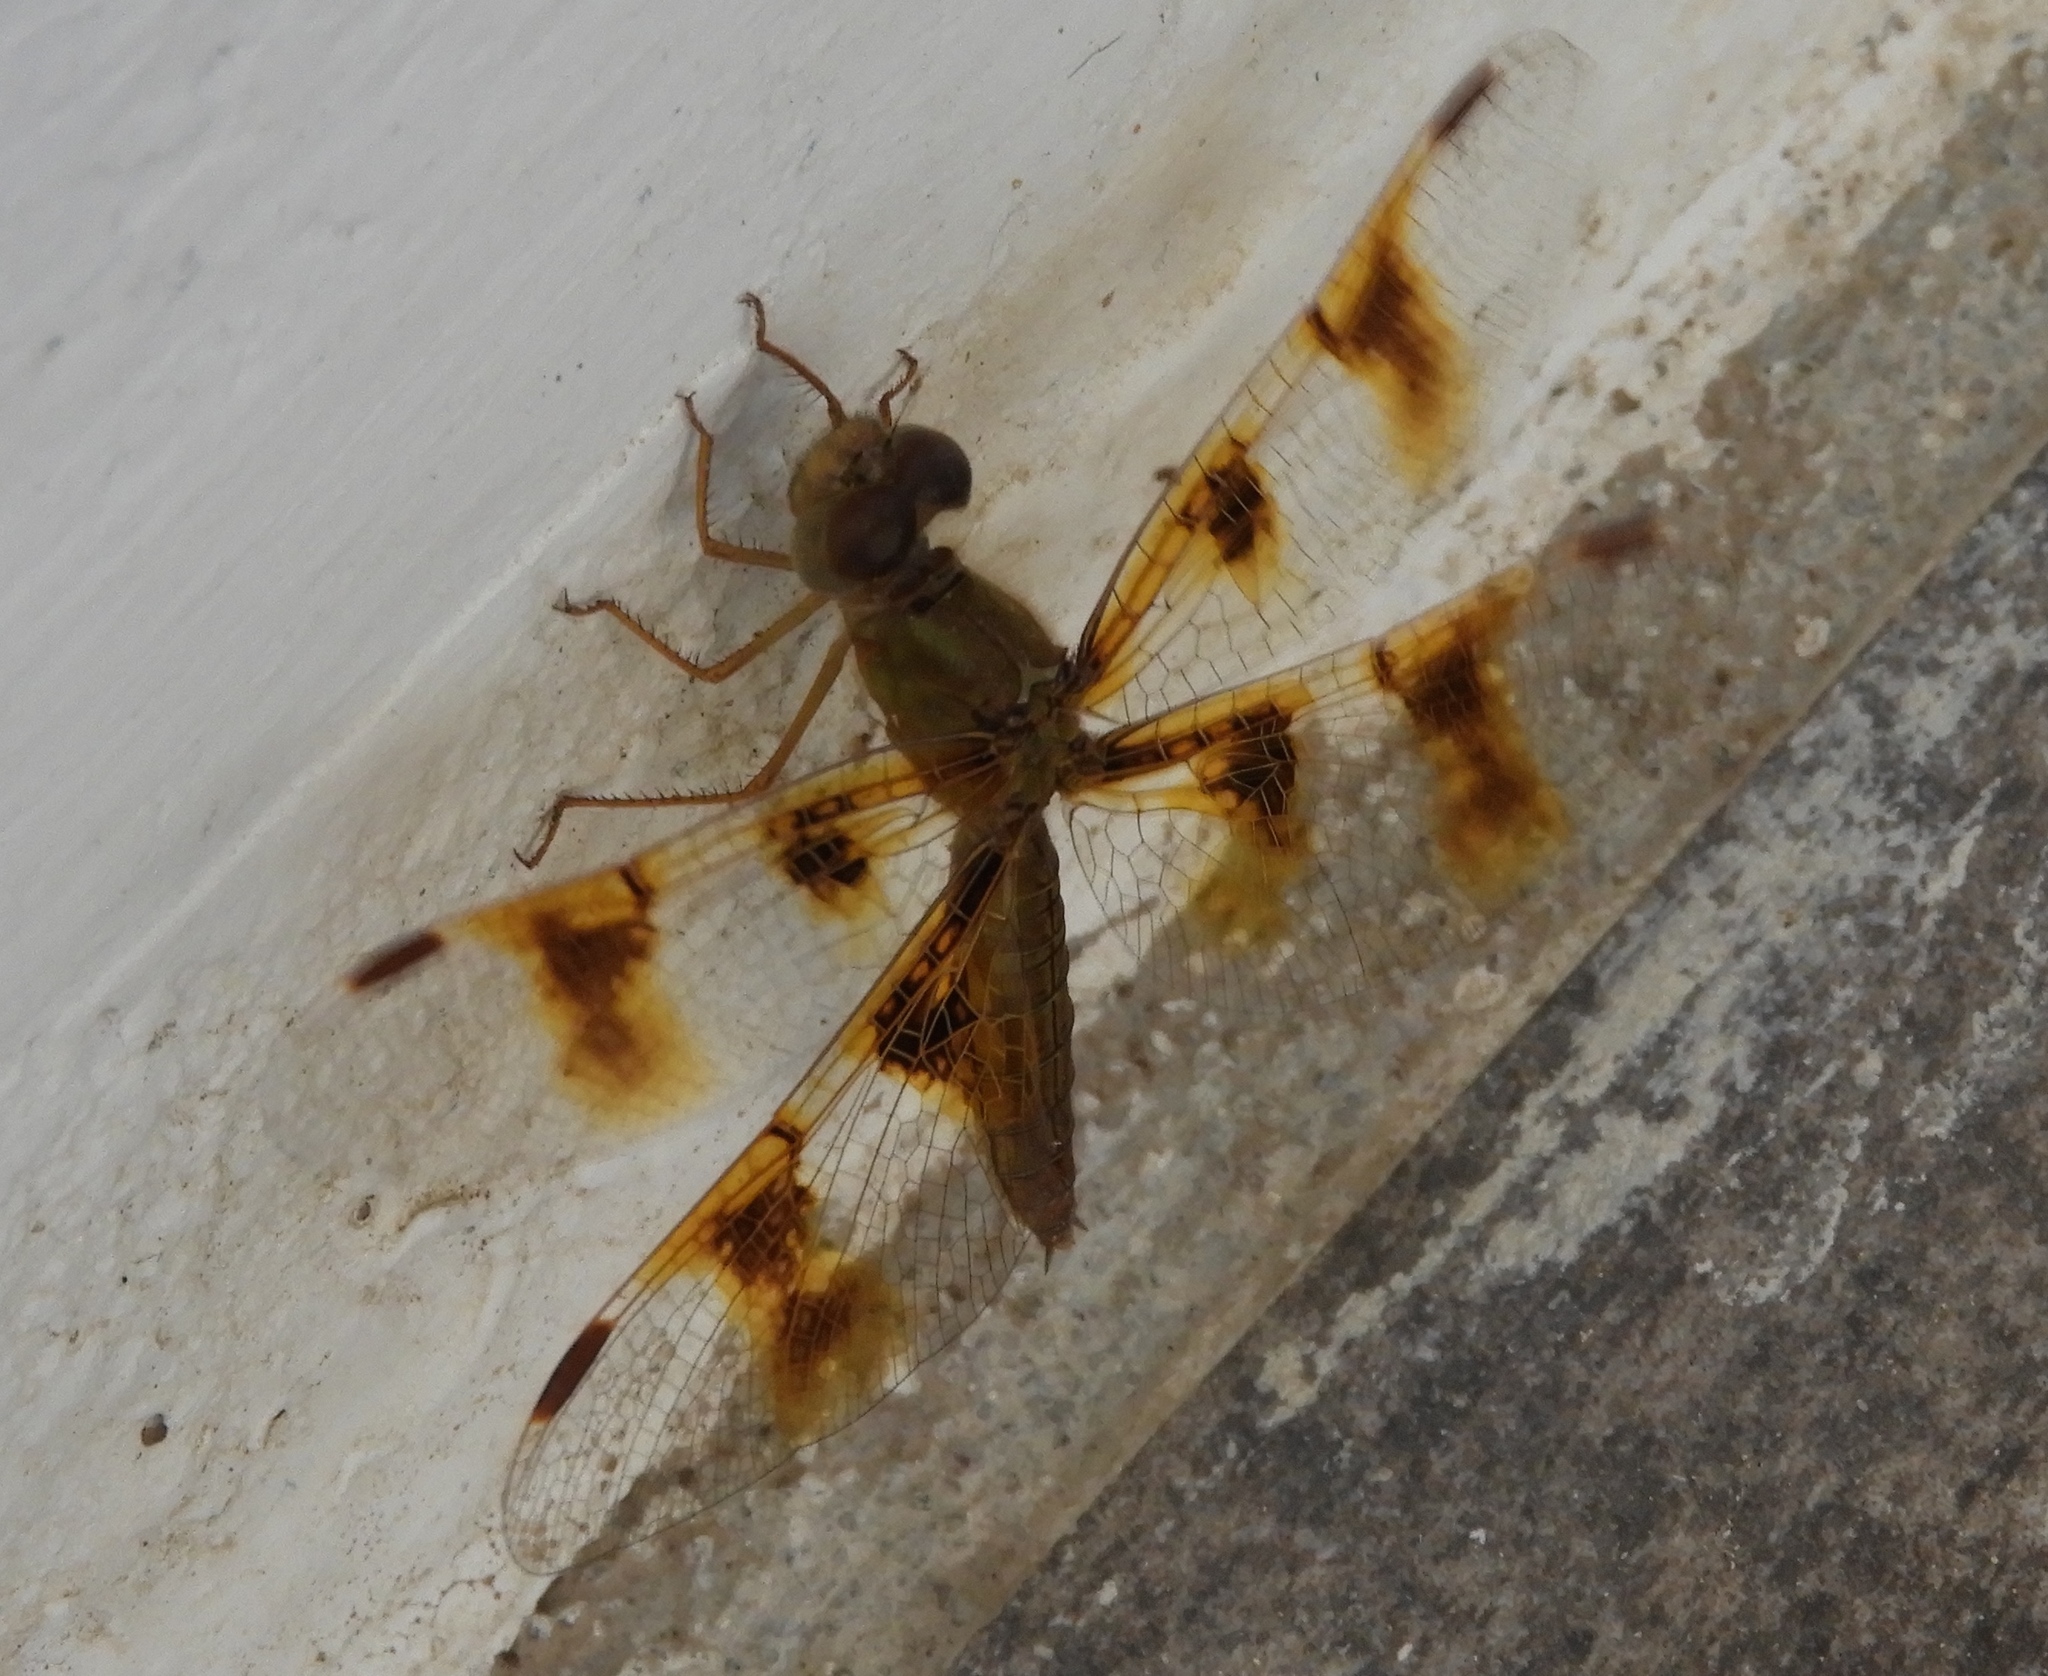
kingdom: Animalia
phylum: Arthropoda
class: Insecta
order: Odonata
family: Libellulidae
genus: Perithemis
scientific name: Perithemis
